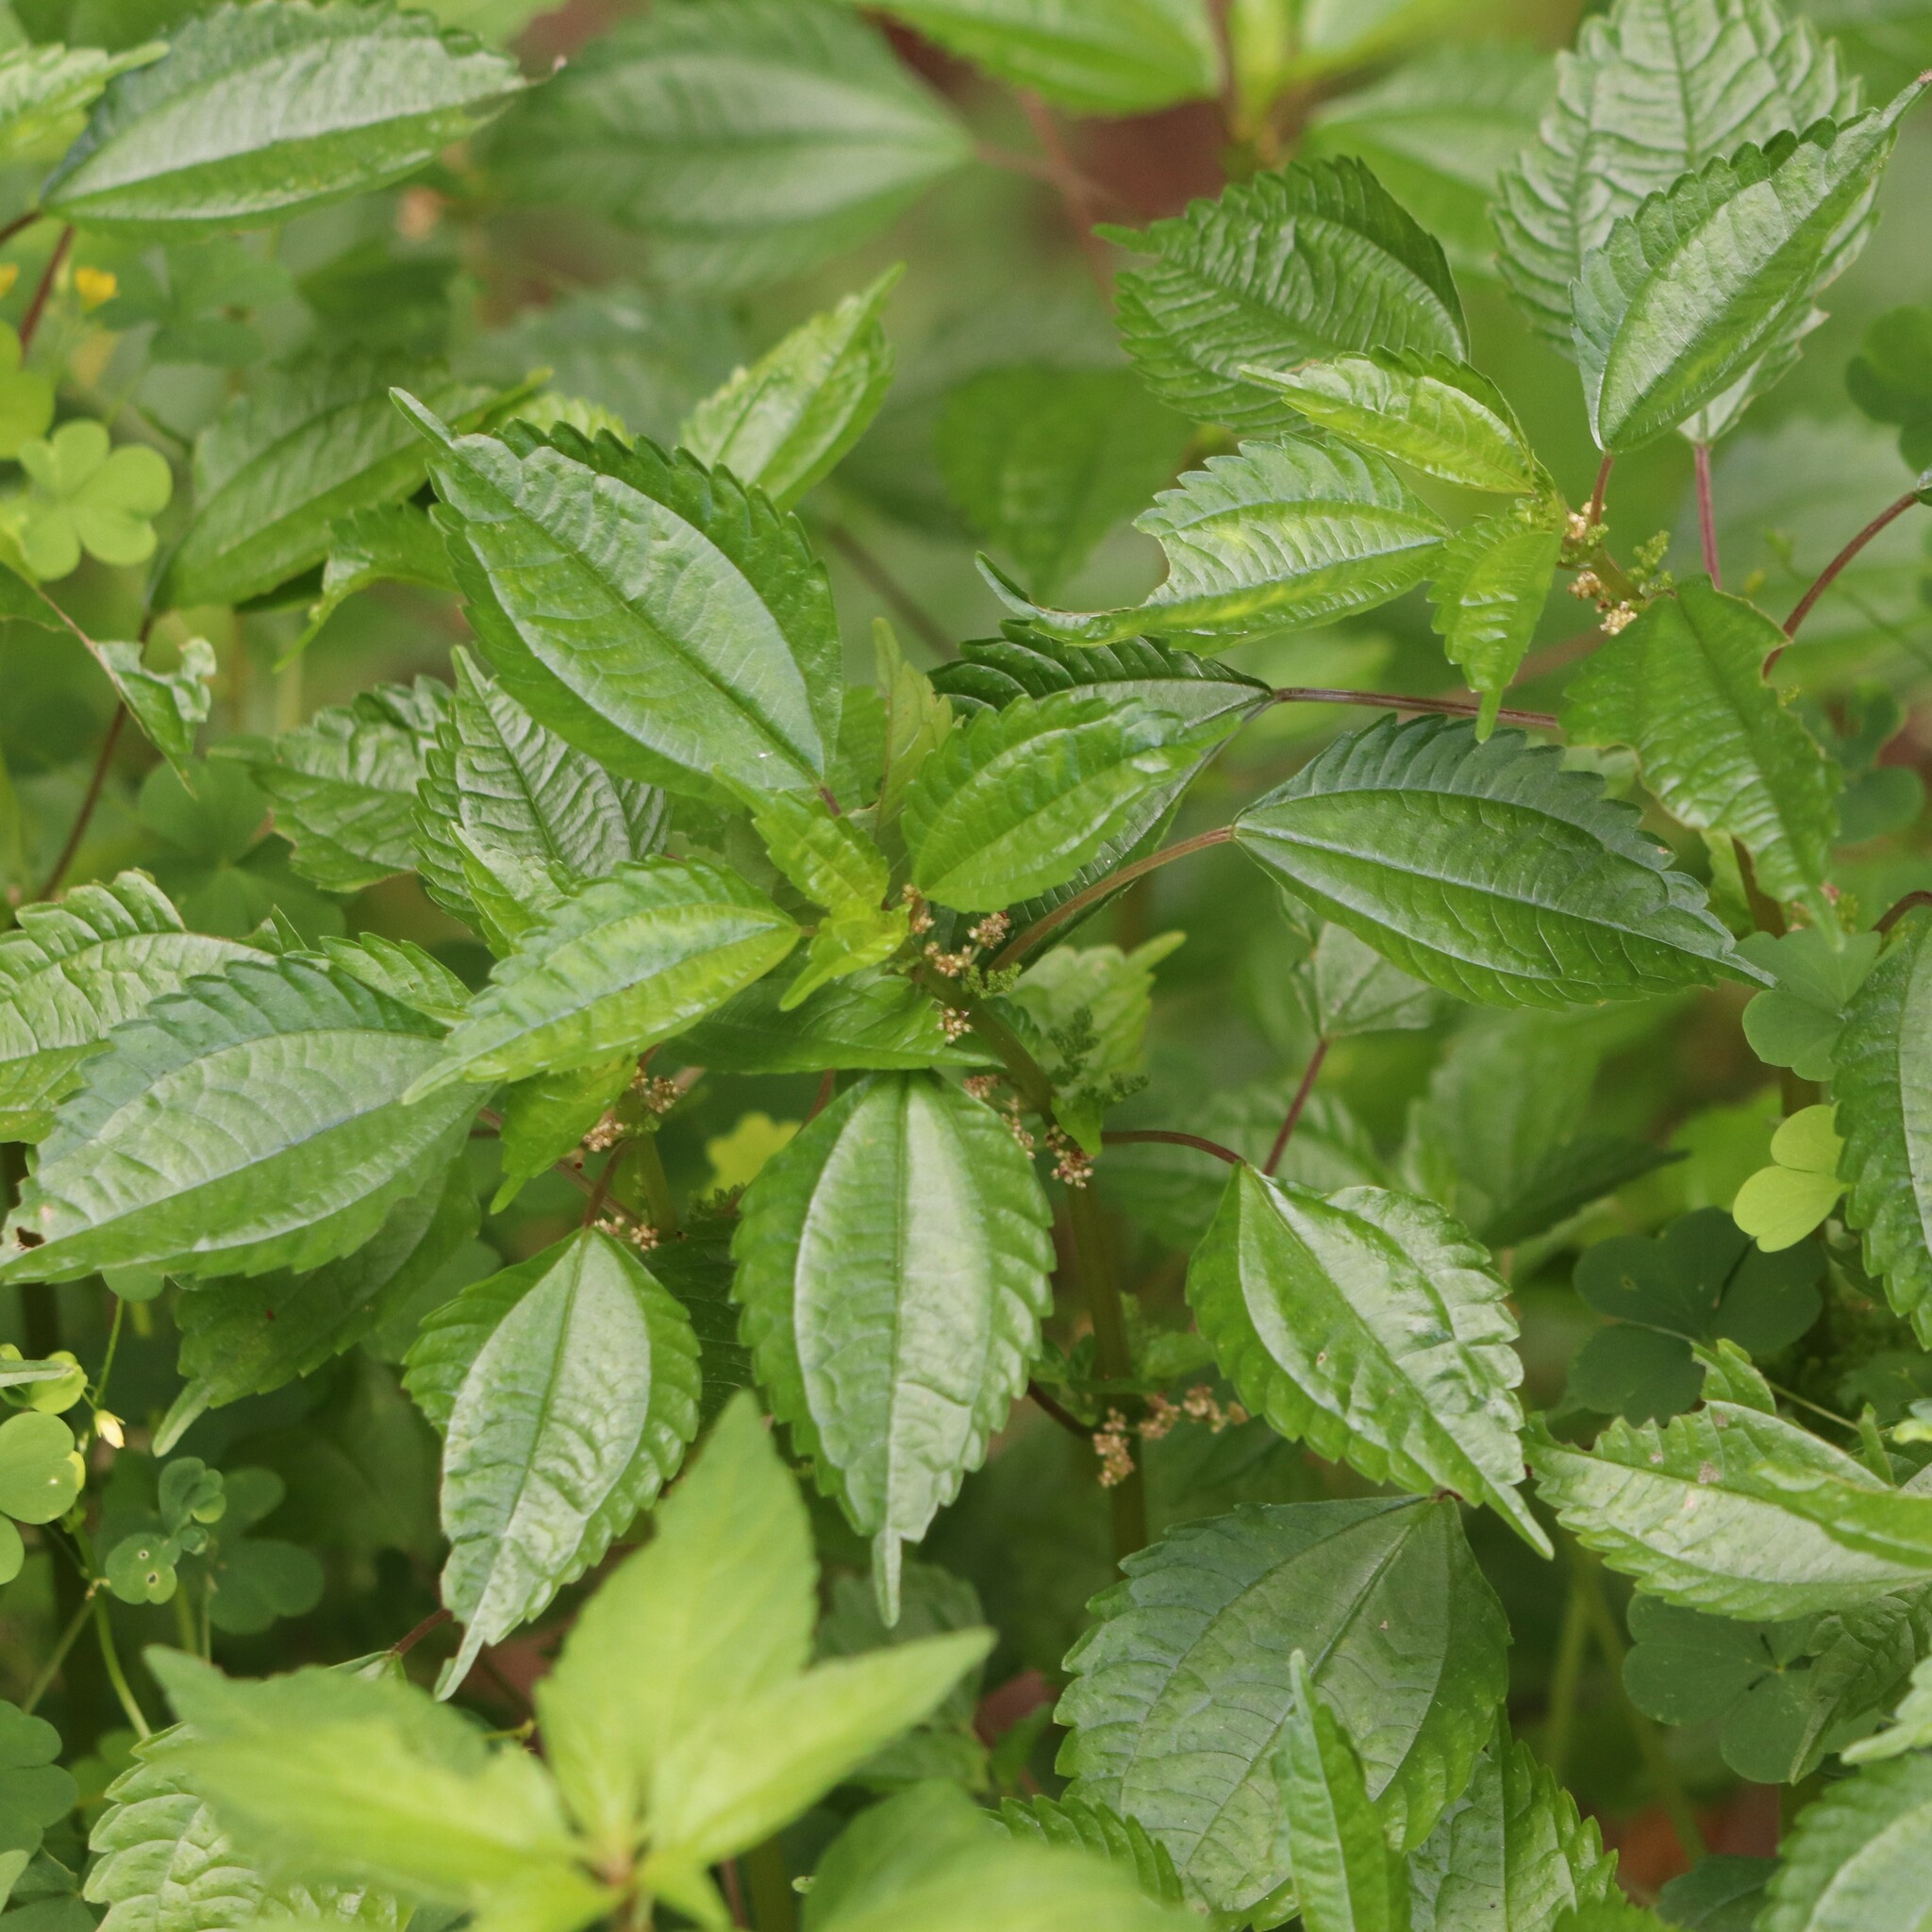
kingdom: Plantae
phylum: Tracheophyta
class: Magnoliopsida
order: Rosales
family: Urticaceae
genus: Pilea
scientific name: Pilea pumila
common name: Clearweed
